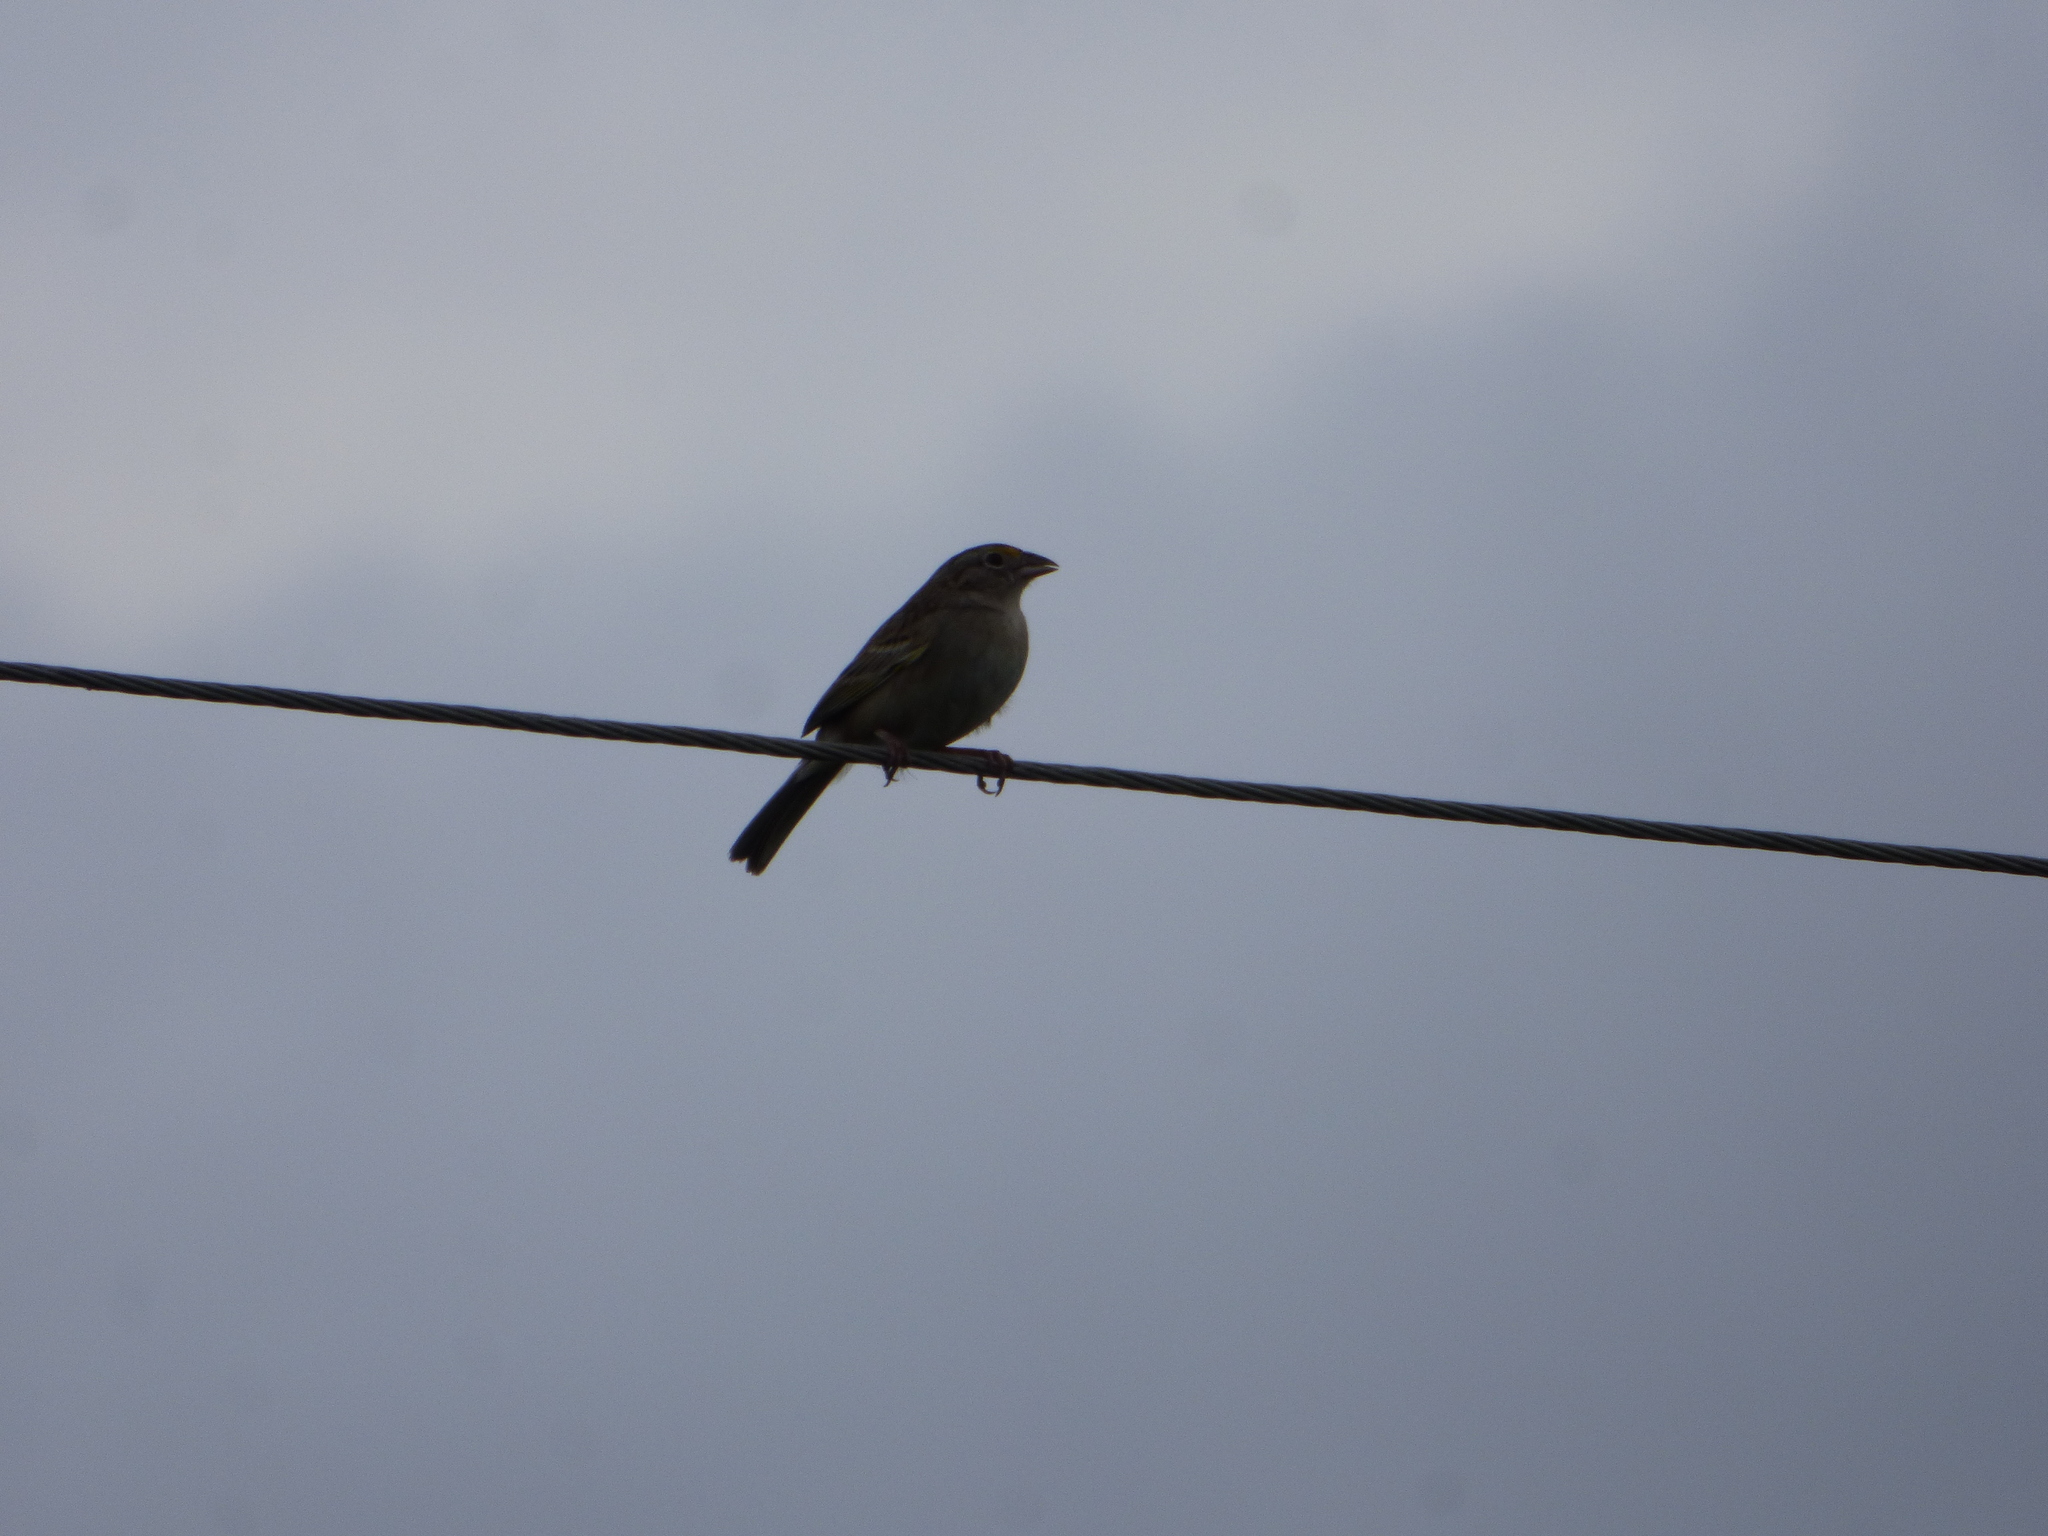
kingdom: Animalia
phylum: Chordata
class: Aves
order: Passeriformes
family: Passerellidae
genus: Ammodramus
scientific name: Ammodramus humeralis
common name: Grassland sparrow
